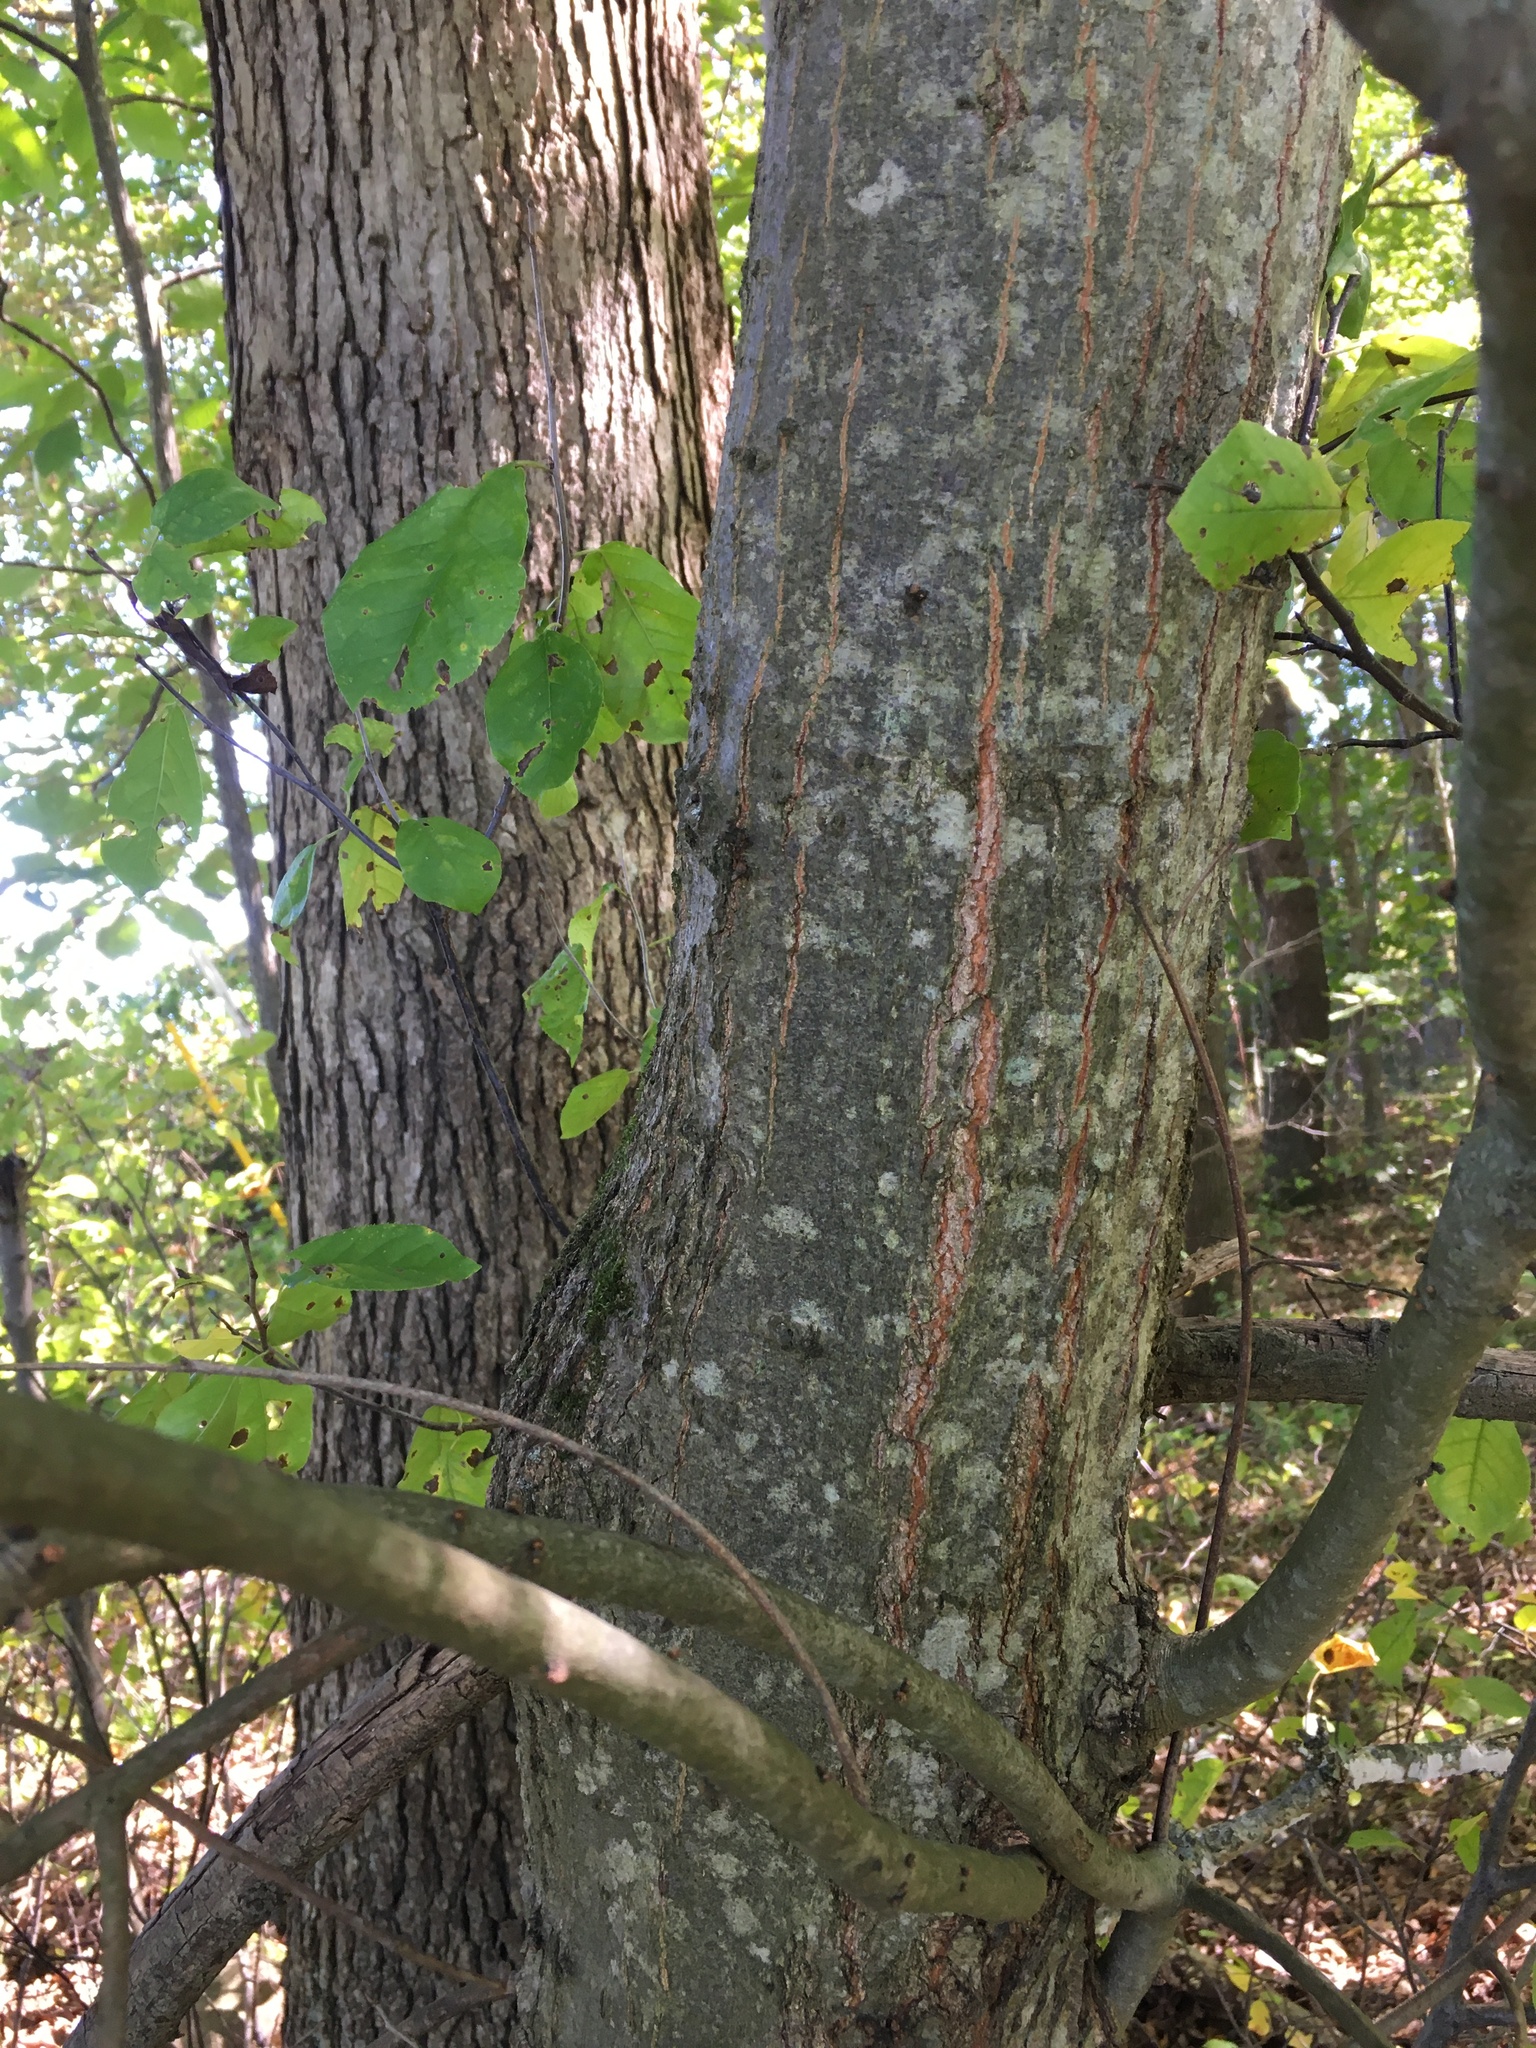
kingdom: Plantae
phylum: Tracheophyta
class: Magnoliopsida
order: Fagales
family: Fagaceae
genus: Quercus
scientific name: Quercus imbricaria
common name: Shingle oak
